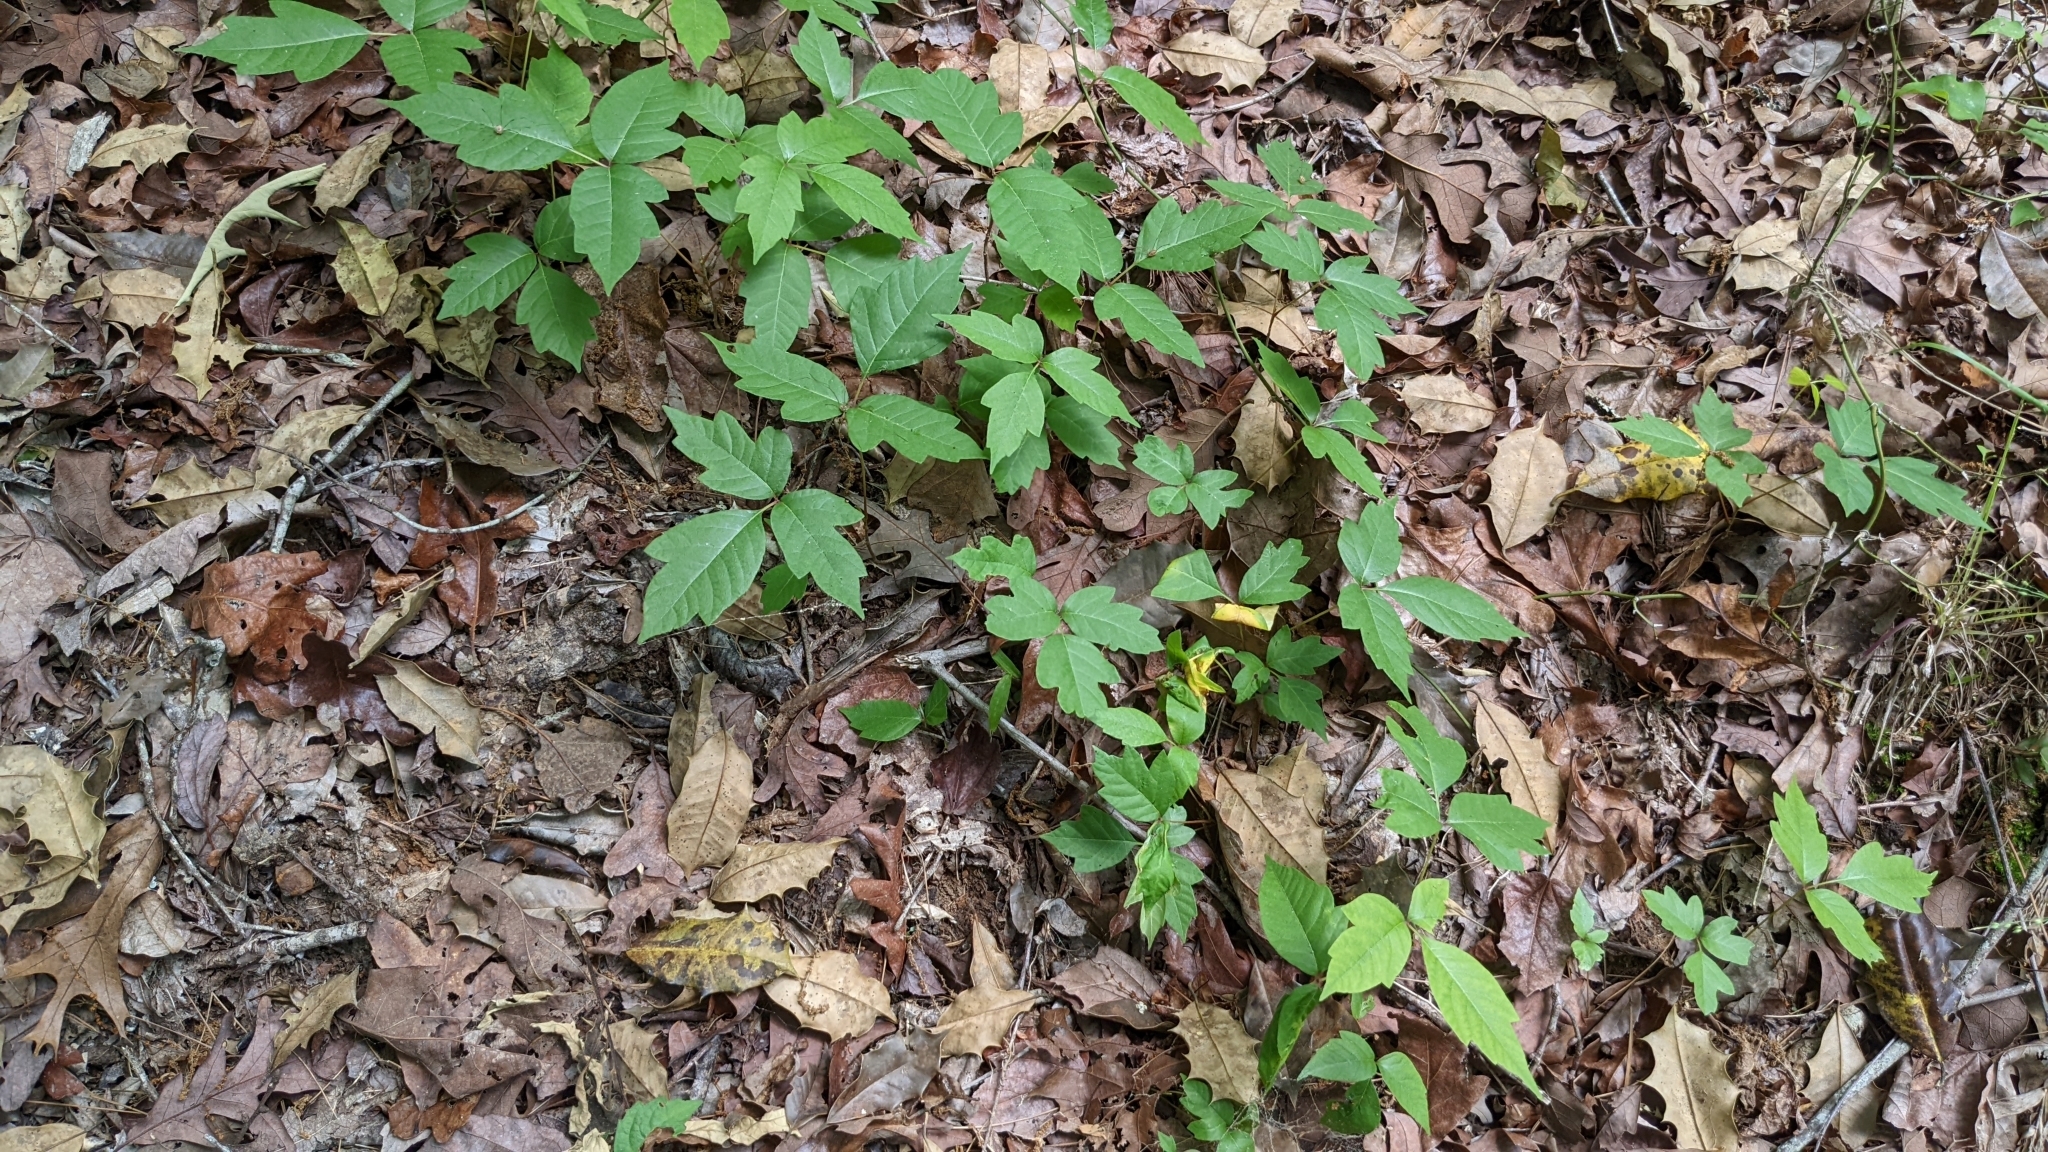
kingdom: Plantae
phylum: Tracheophyta
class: Magnoliopsida
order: Sapindales
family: Anacardiaceae
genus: Toxicodendron
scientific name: Toxicodendron radicans
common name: Poison ivy
